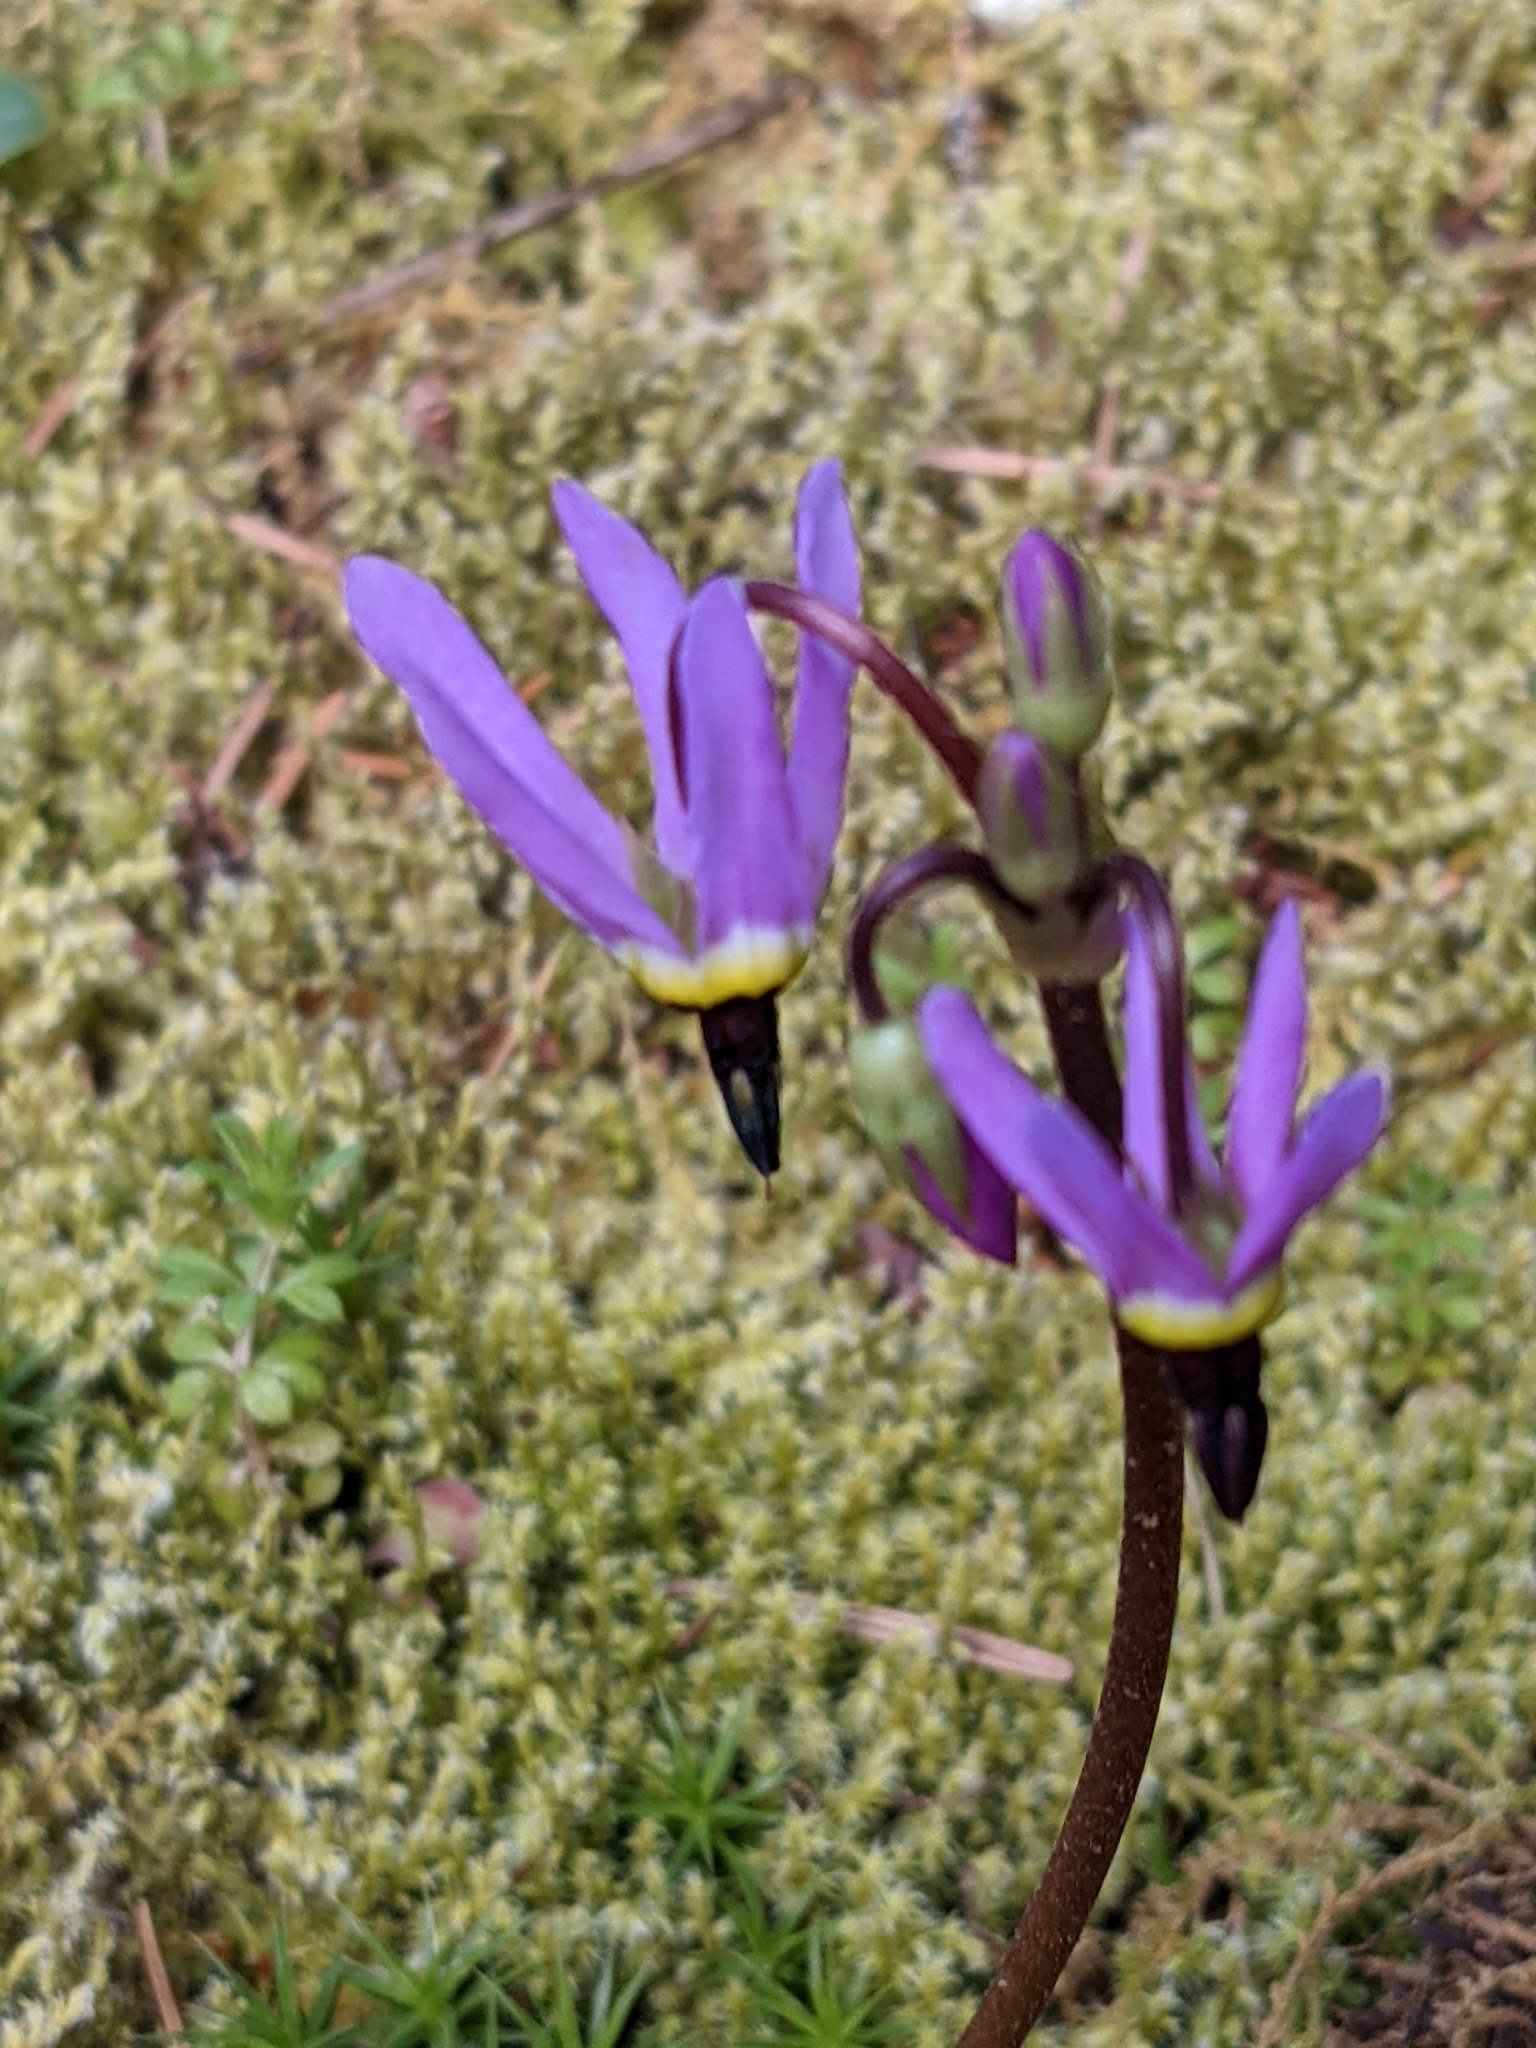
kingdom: Plantae
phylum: Tracheophyta
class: Magnoliopsida
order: Ericales
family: Primulaceae
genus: Dodecatheon
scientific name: Dodecatheon hendersonii
